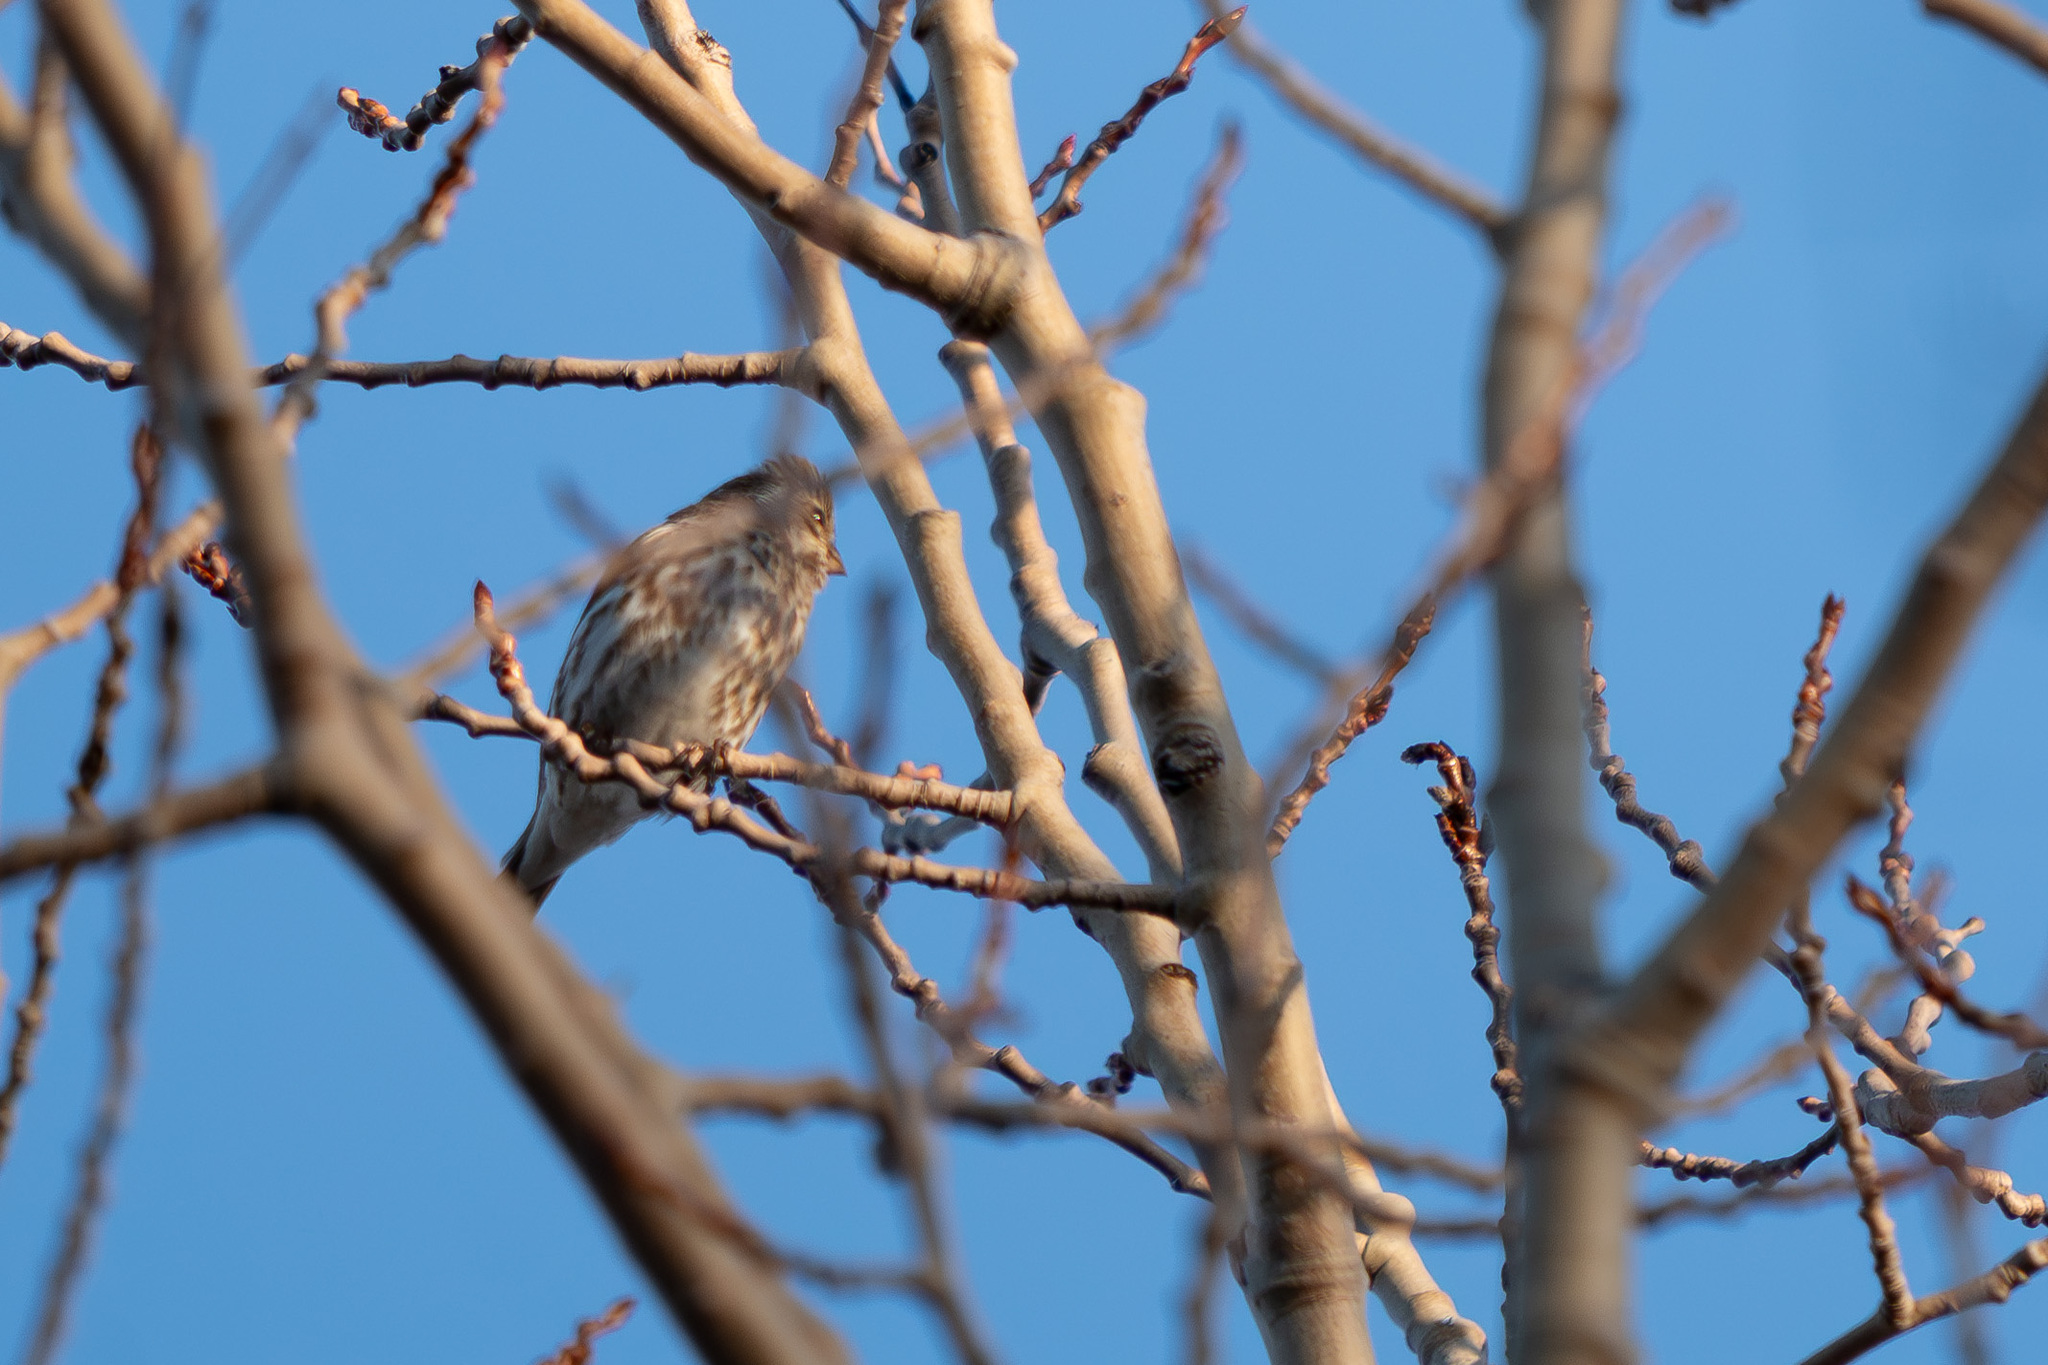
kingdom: Animalia
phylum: Chordata
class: Aves
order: Passeriformes
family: Fringillidae
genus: Haemorhous
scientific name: Haemorhous purpureus
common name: Purple finch
